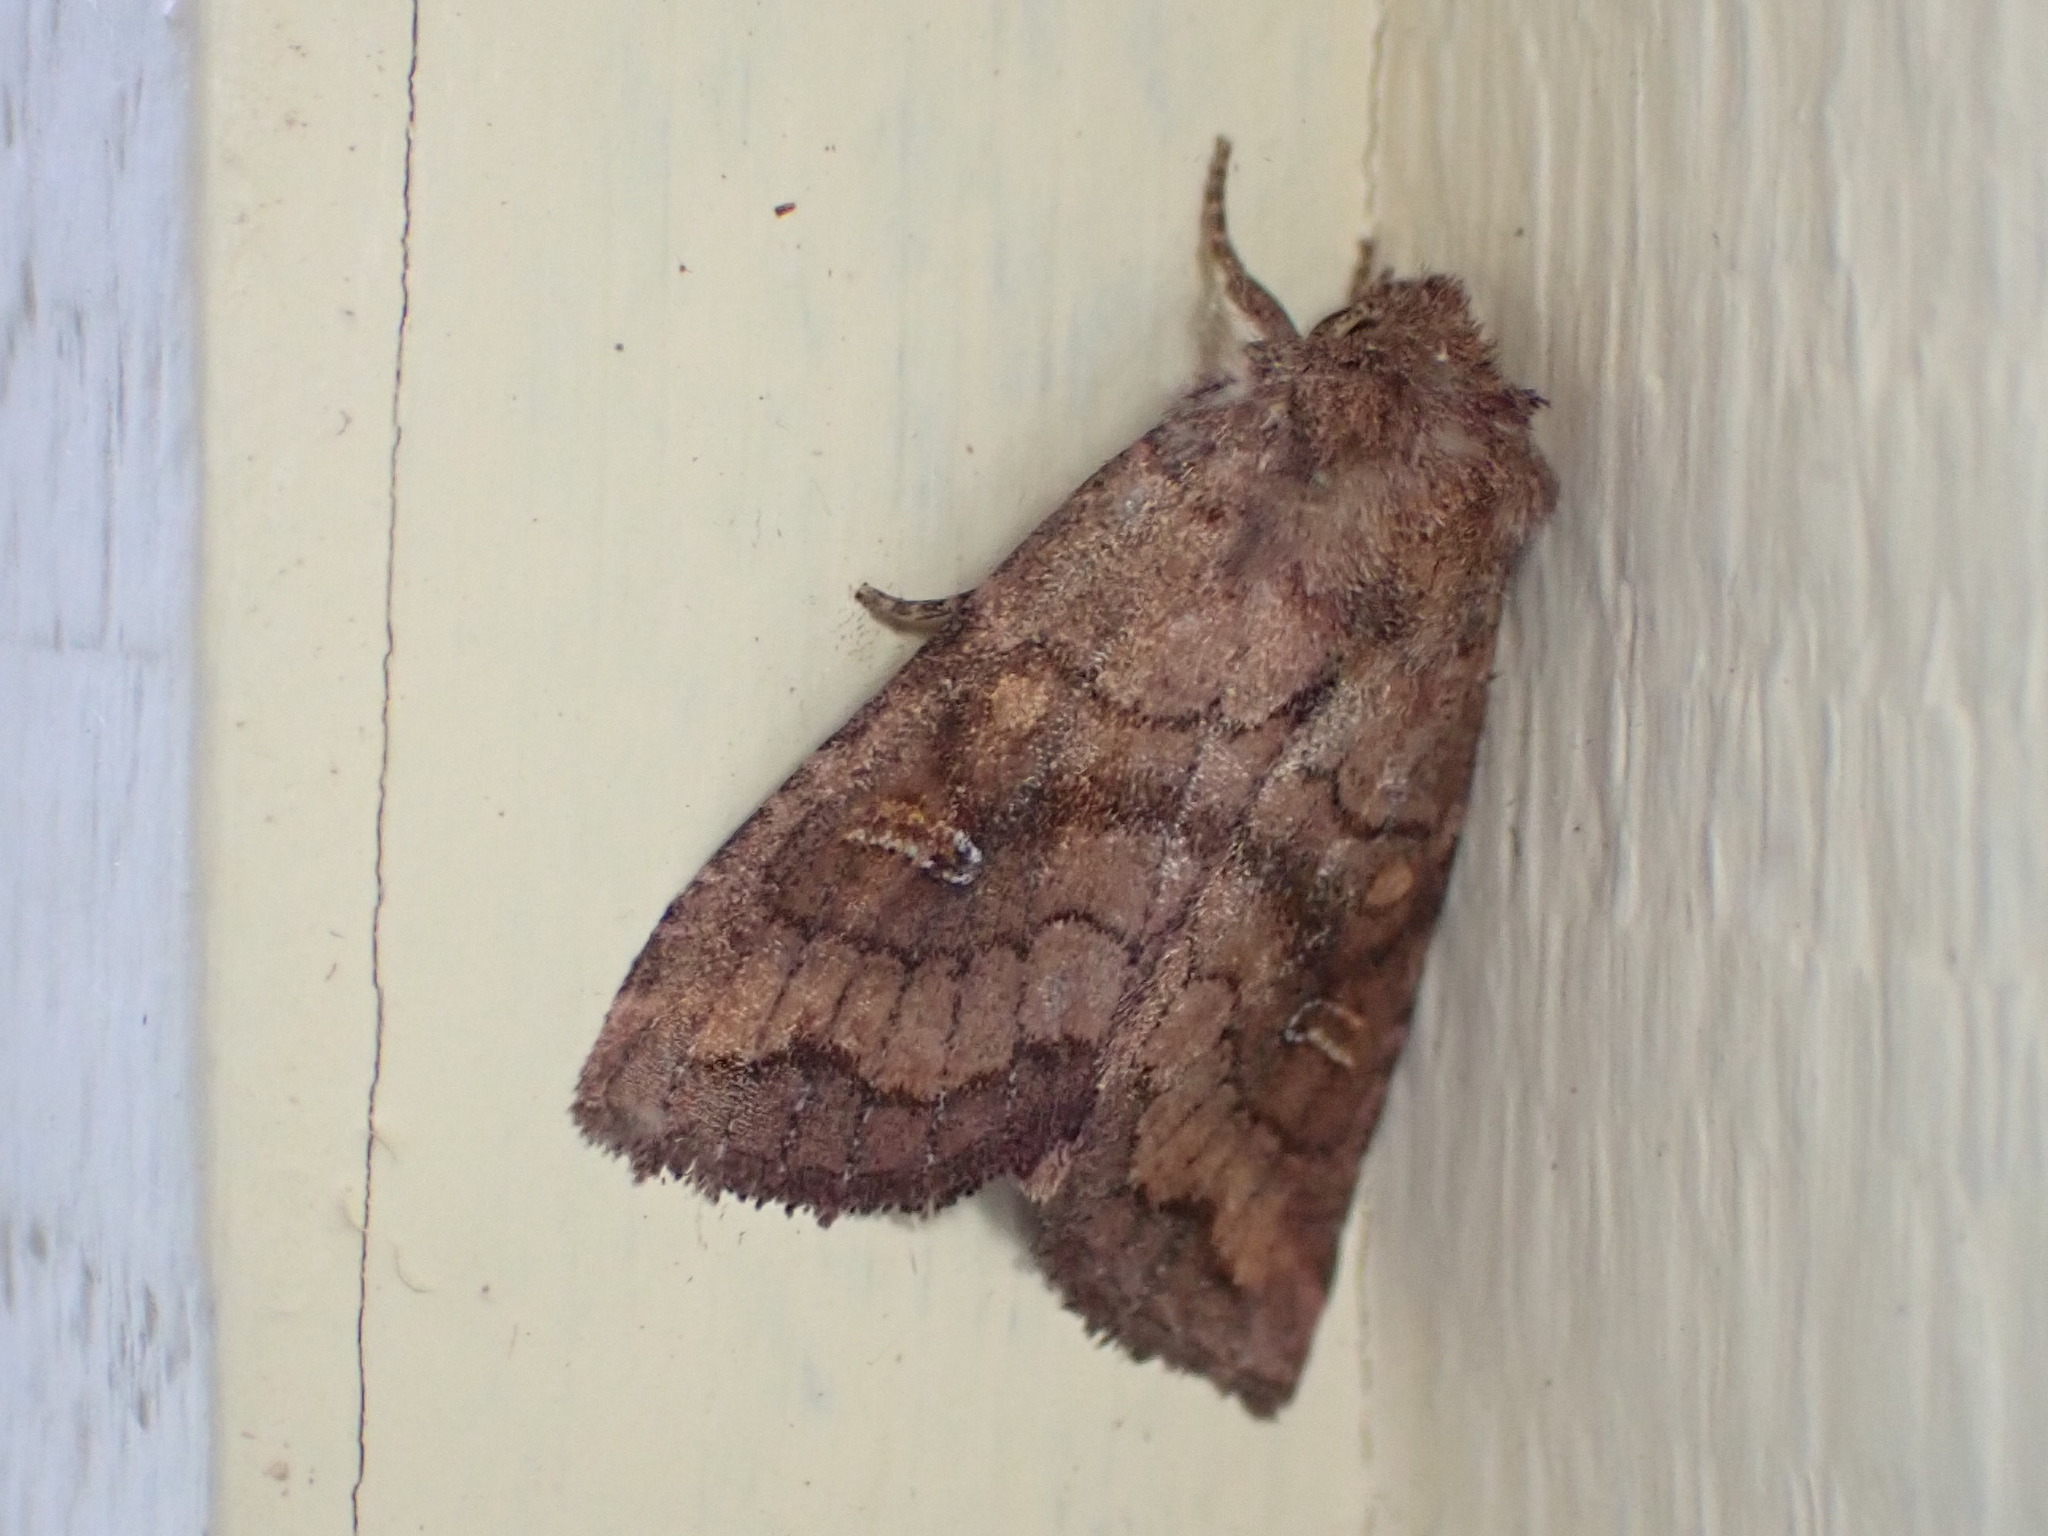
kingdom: Animalia
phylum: Arthropoda
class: Insecta
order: Lepidoptera
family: Noctuidae
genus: Tricholita
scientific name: Tricholita signata
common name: Signate quaker
